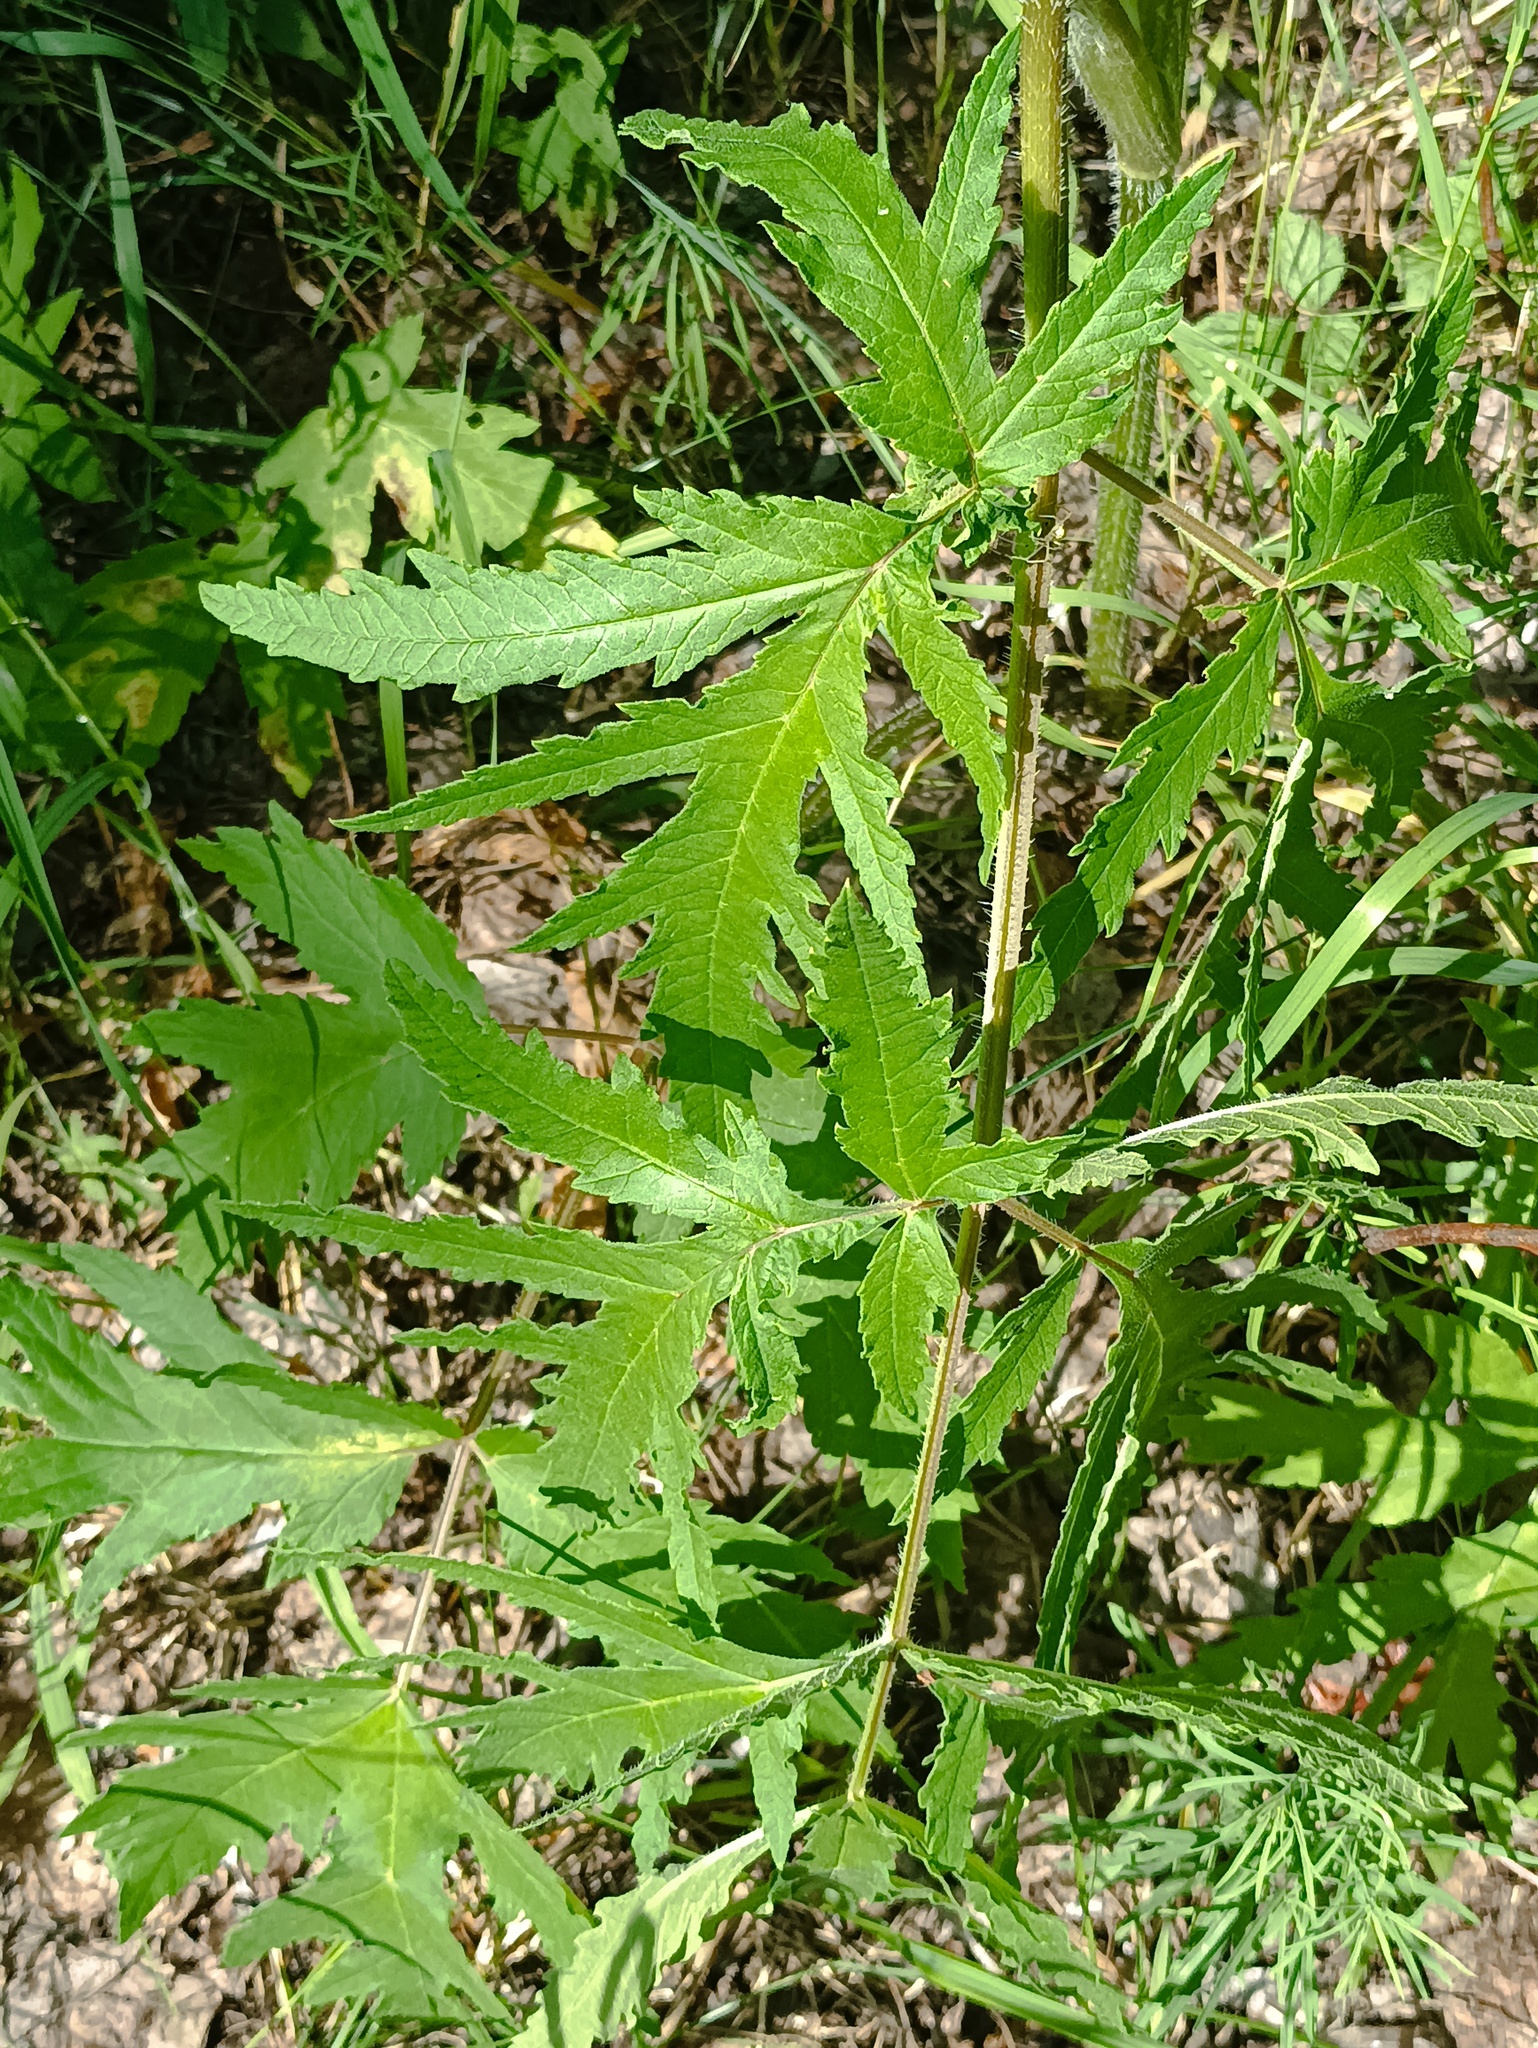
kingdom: Plantae
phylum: Tracheophyta
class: Magnoliopsida
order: Apiales
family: Apiaceae
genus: Heracleum
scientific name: Heracleum sphondylium
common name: Hogweed
